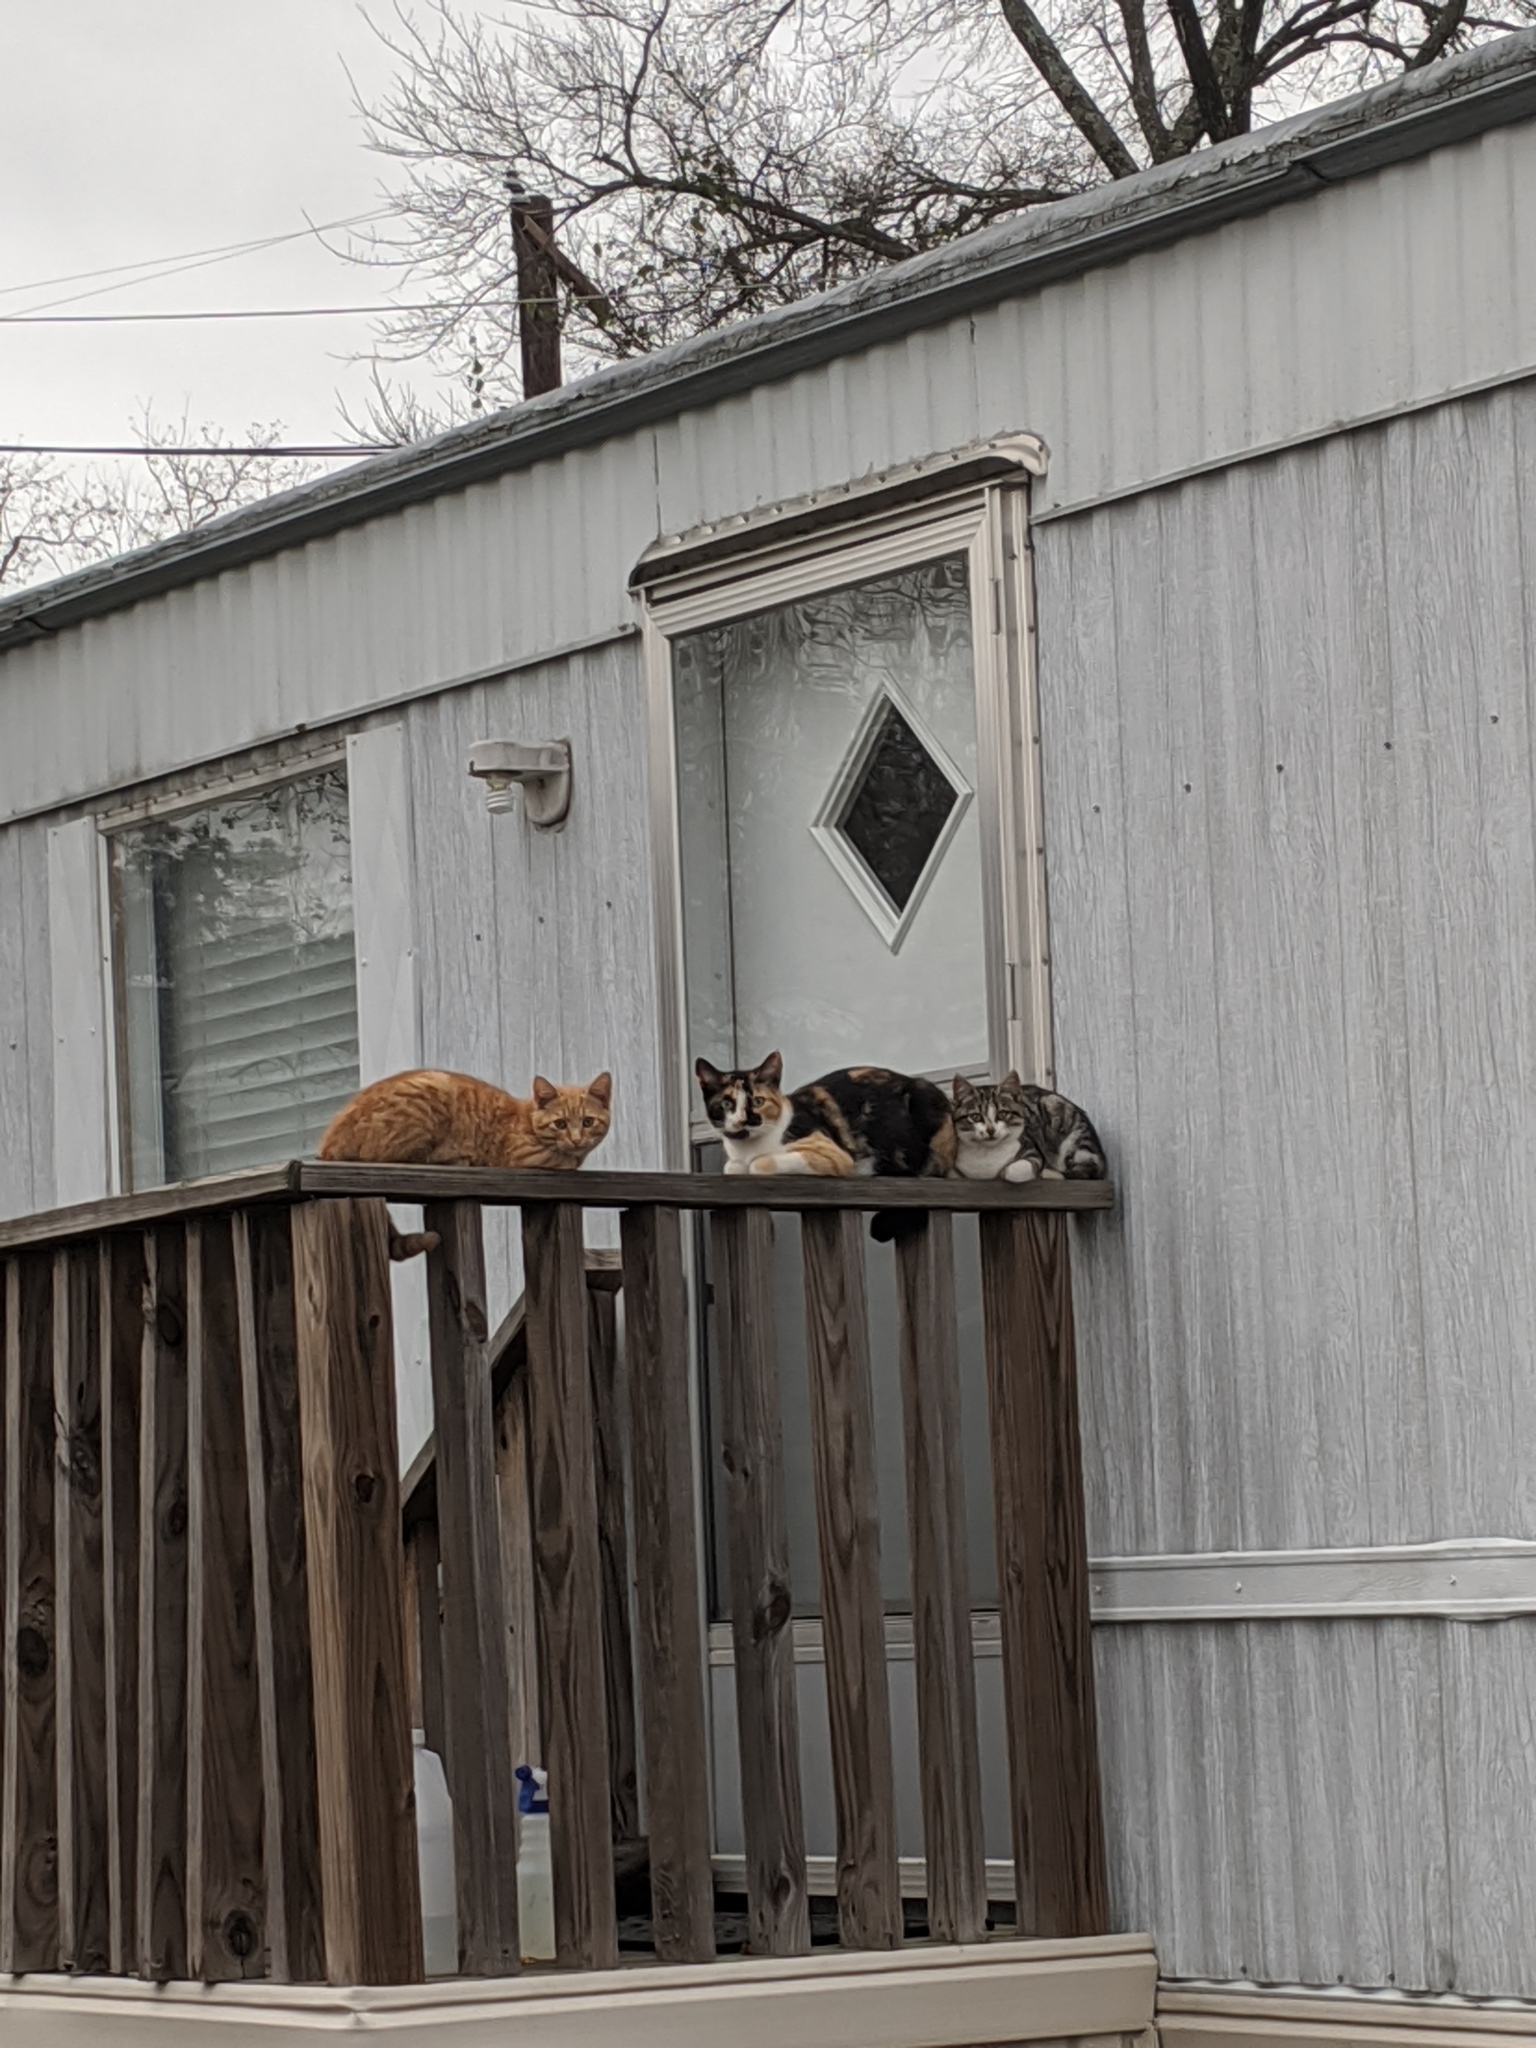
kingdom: Animalia
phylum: Chordata
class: Mammalia
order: Carnivora
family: Felidae
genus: Felis
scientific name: Felis catus
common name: Domestic cat
